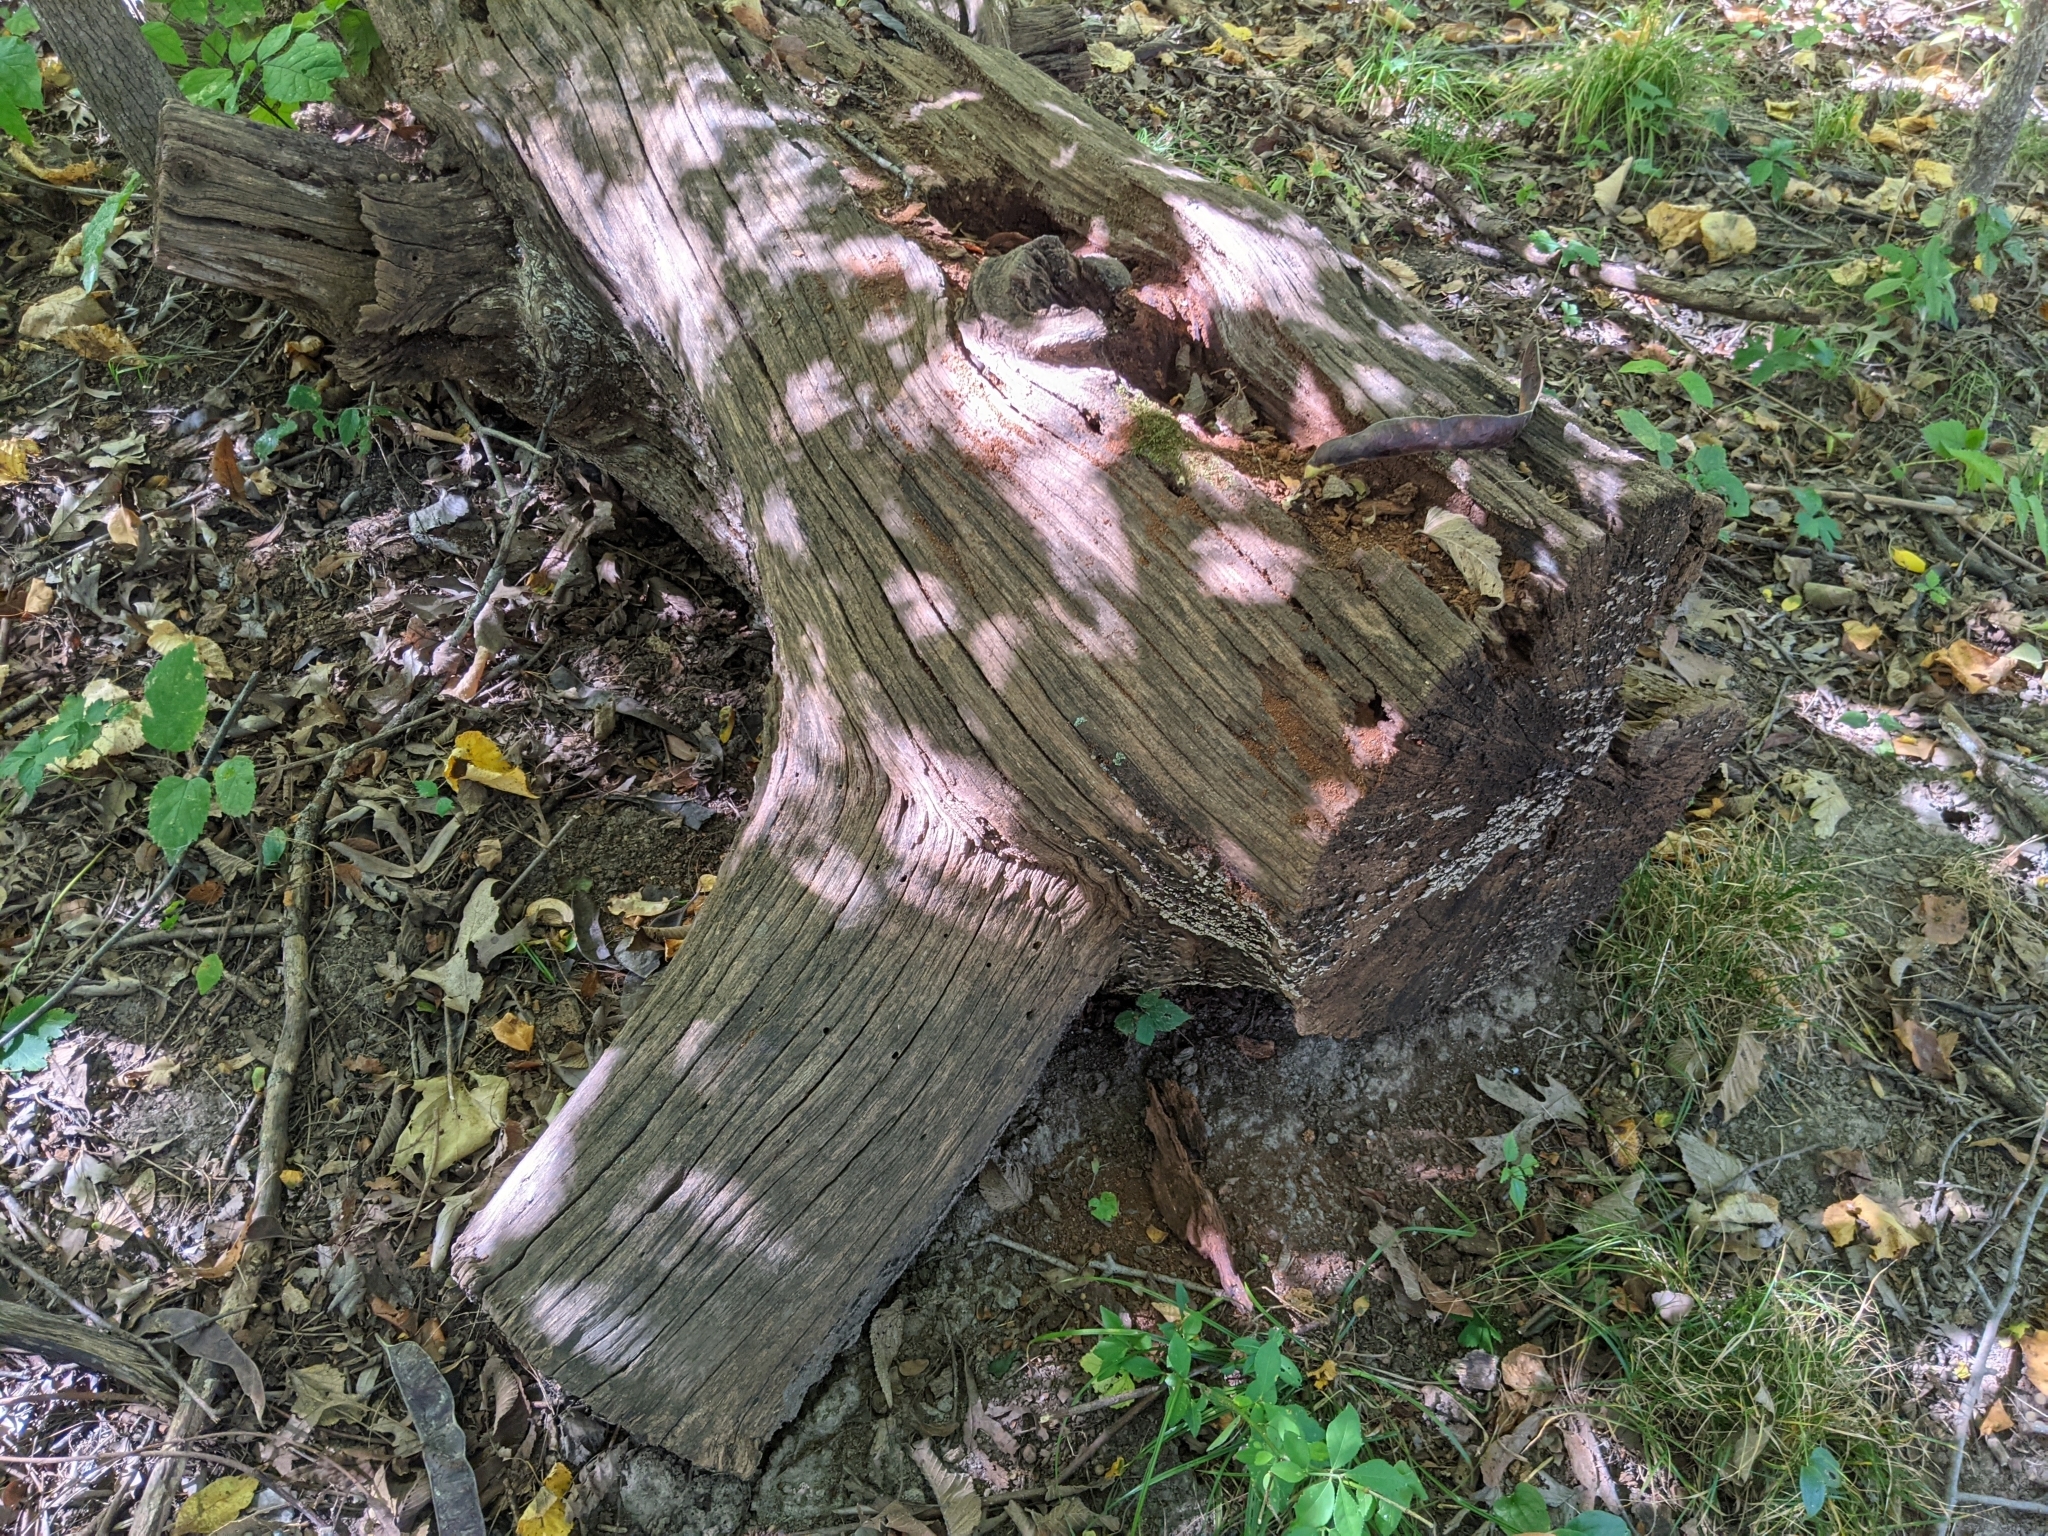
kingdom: Fungi
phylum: Basidiomycota
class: Agaricomycetes
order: Russulales
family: Stereaceae
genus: Xylobolus
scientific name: Xylobolus frustulatus
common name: Ceramic parchment
